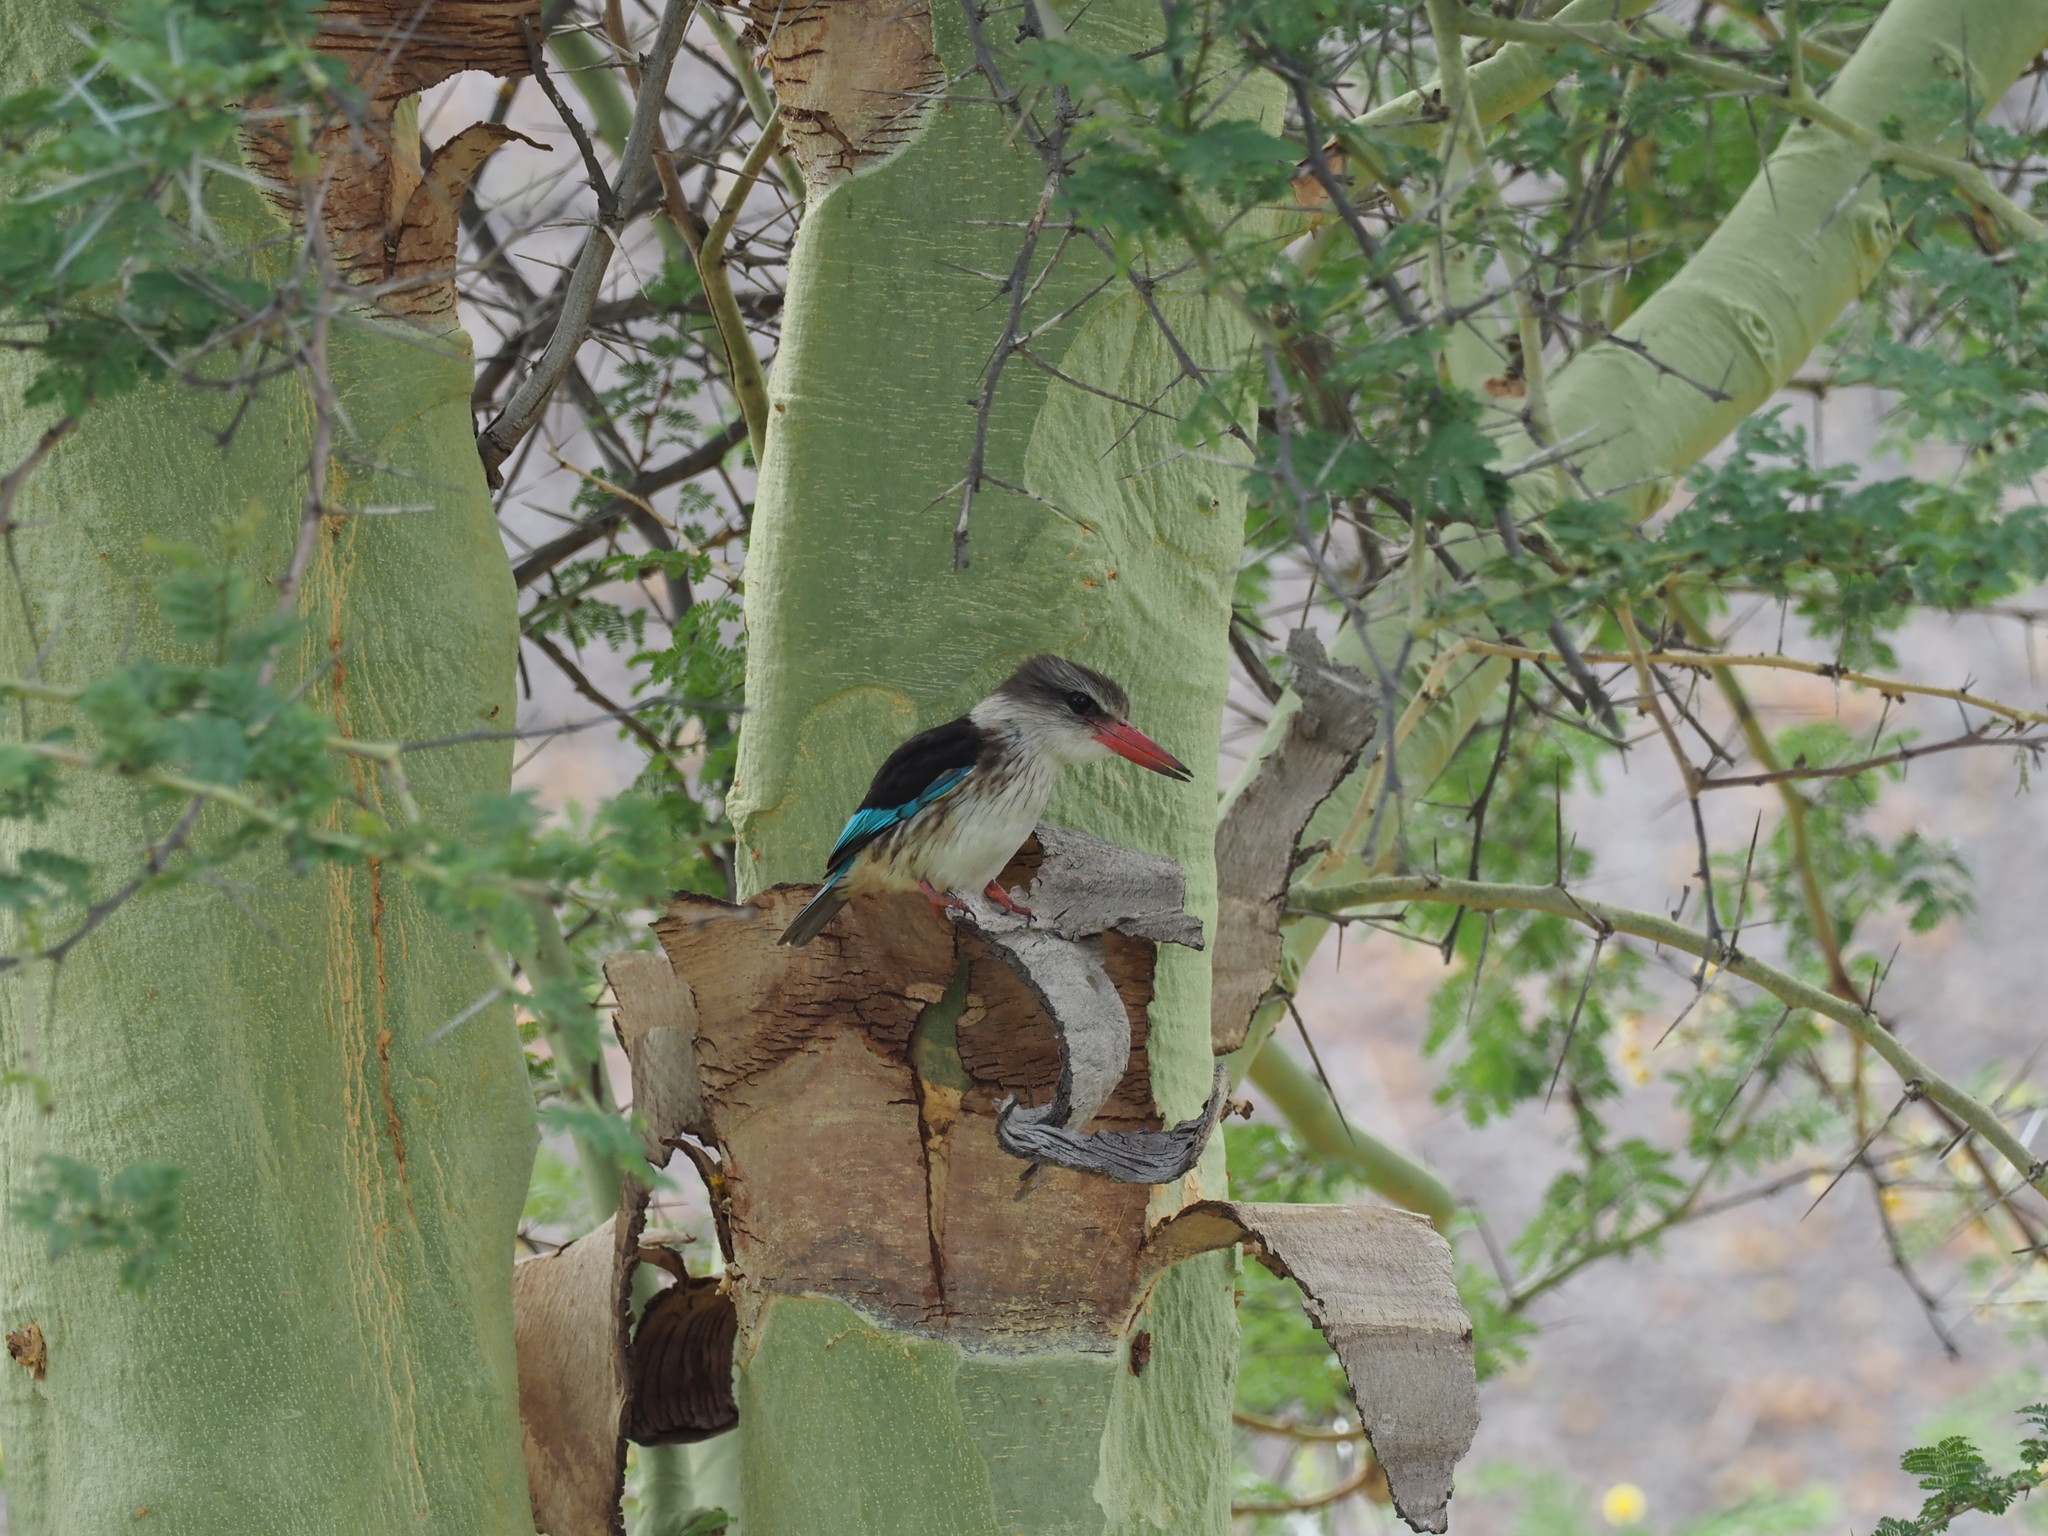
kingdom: Animalia
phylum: Chordata
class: Aves
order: Coraciiformes
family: Alcedinidae
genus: Halcyon
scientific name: Halcyon albiventris
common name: Brown-hooded kingfisher
